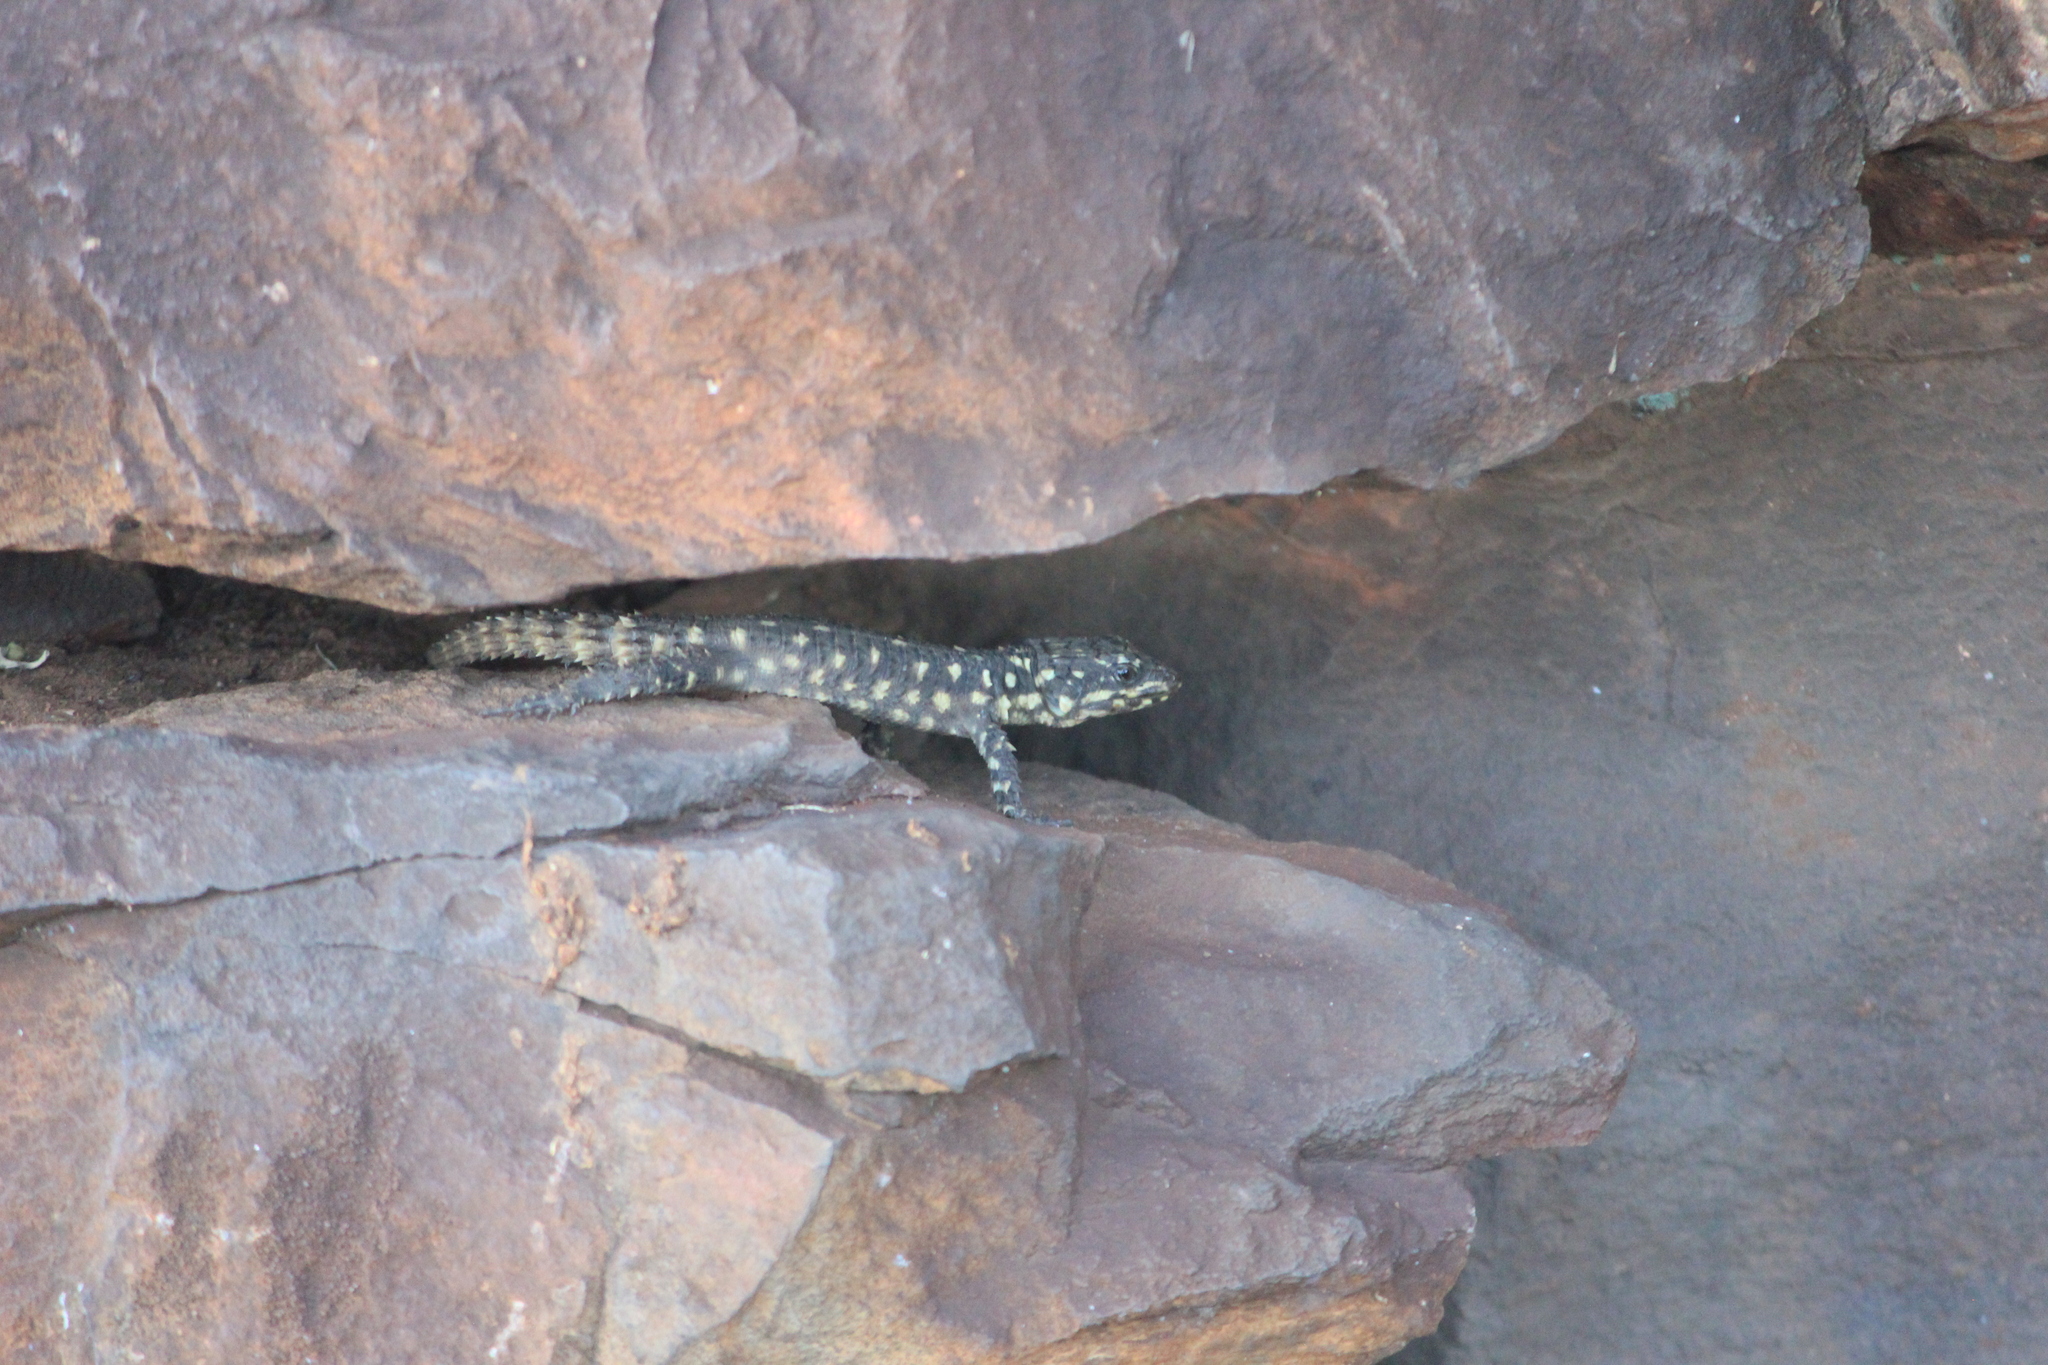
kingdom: Animalia
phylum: Chordata
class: Squamata
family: Cordylidae
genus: Smaug
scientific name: Smaug depressus
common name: Flat dragon lizard
